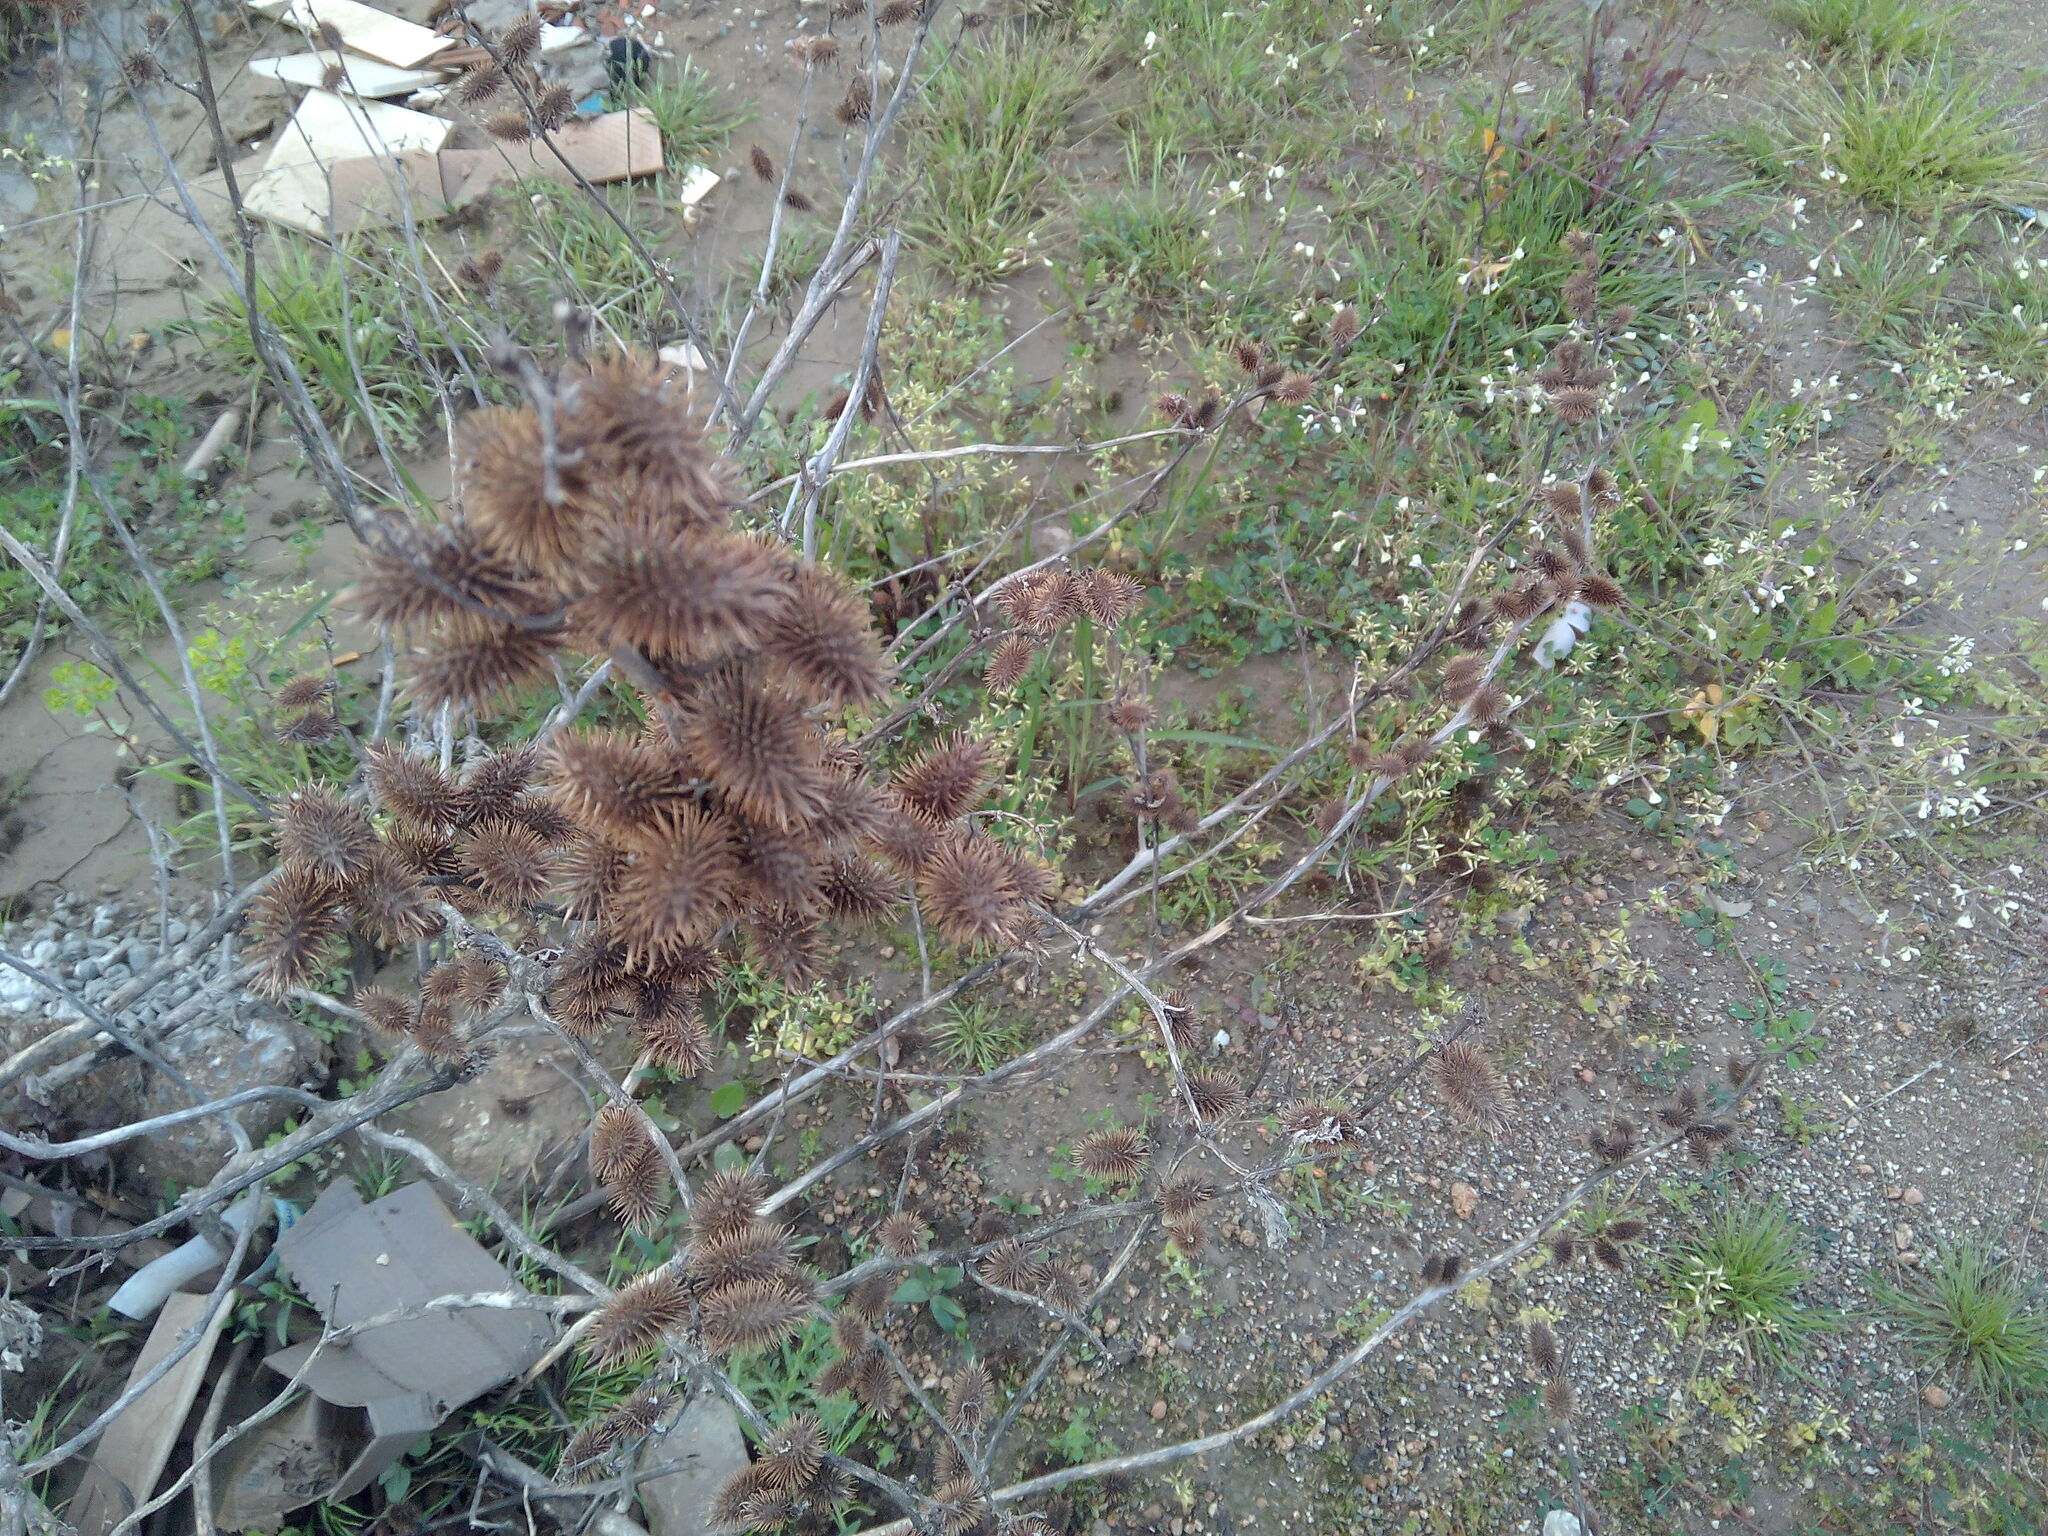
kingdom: Plantae
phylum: Tracheophyta
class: Magnoliopsida
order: Asterales
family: Asteraceae
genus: Xanthium
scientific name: Xanthium strumarium
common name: Rough cocklebur
